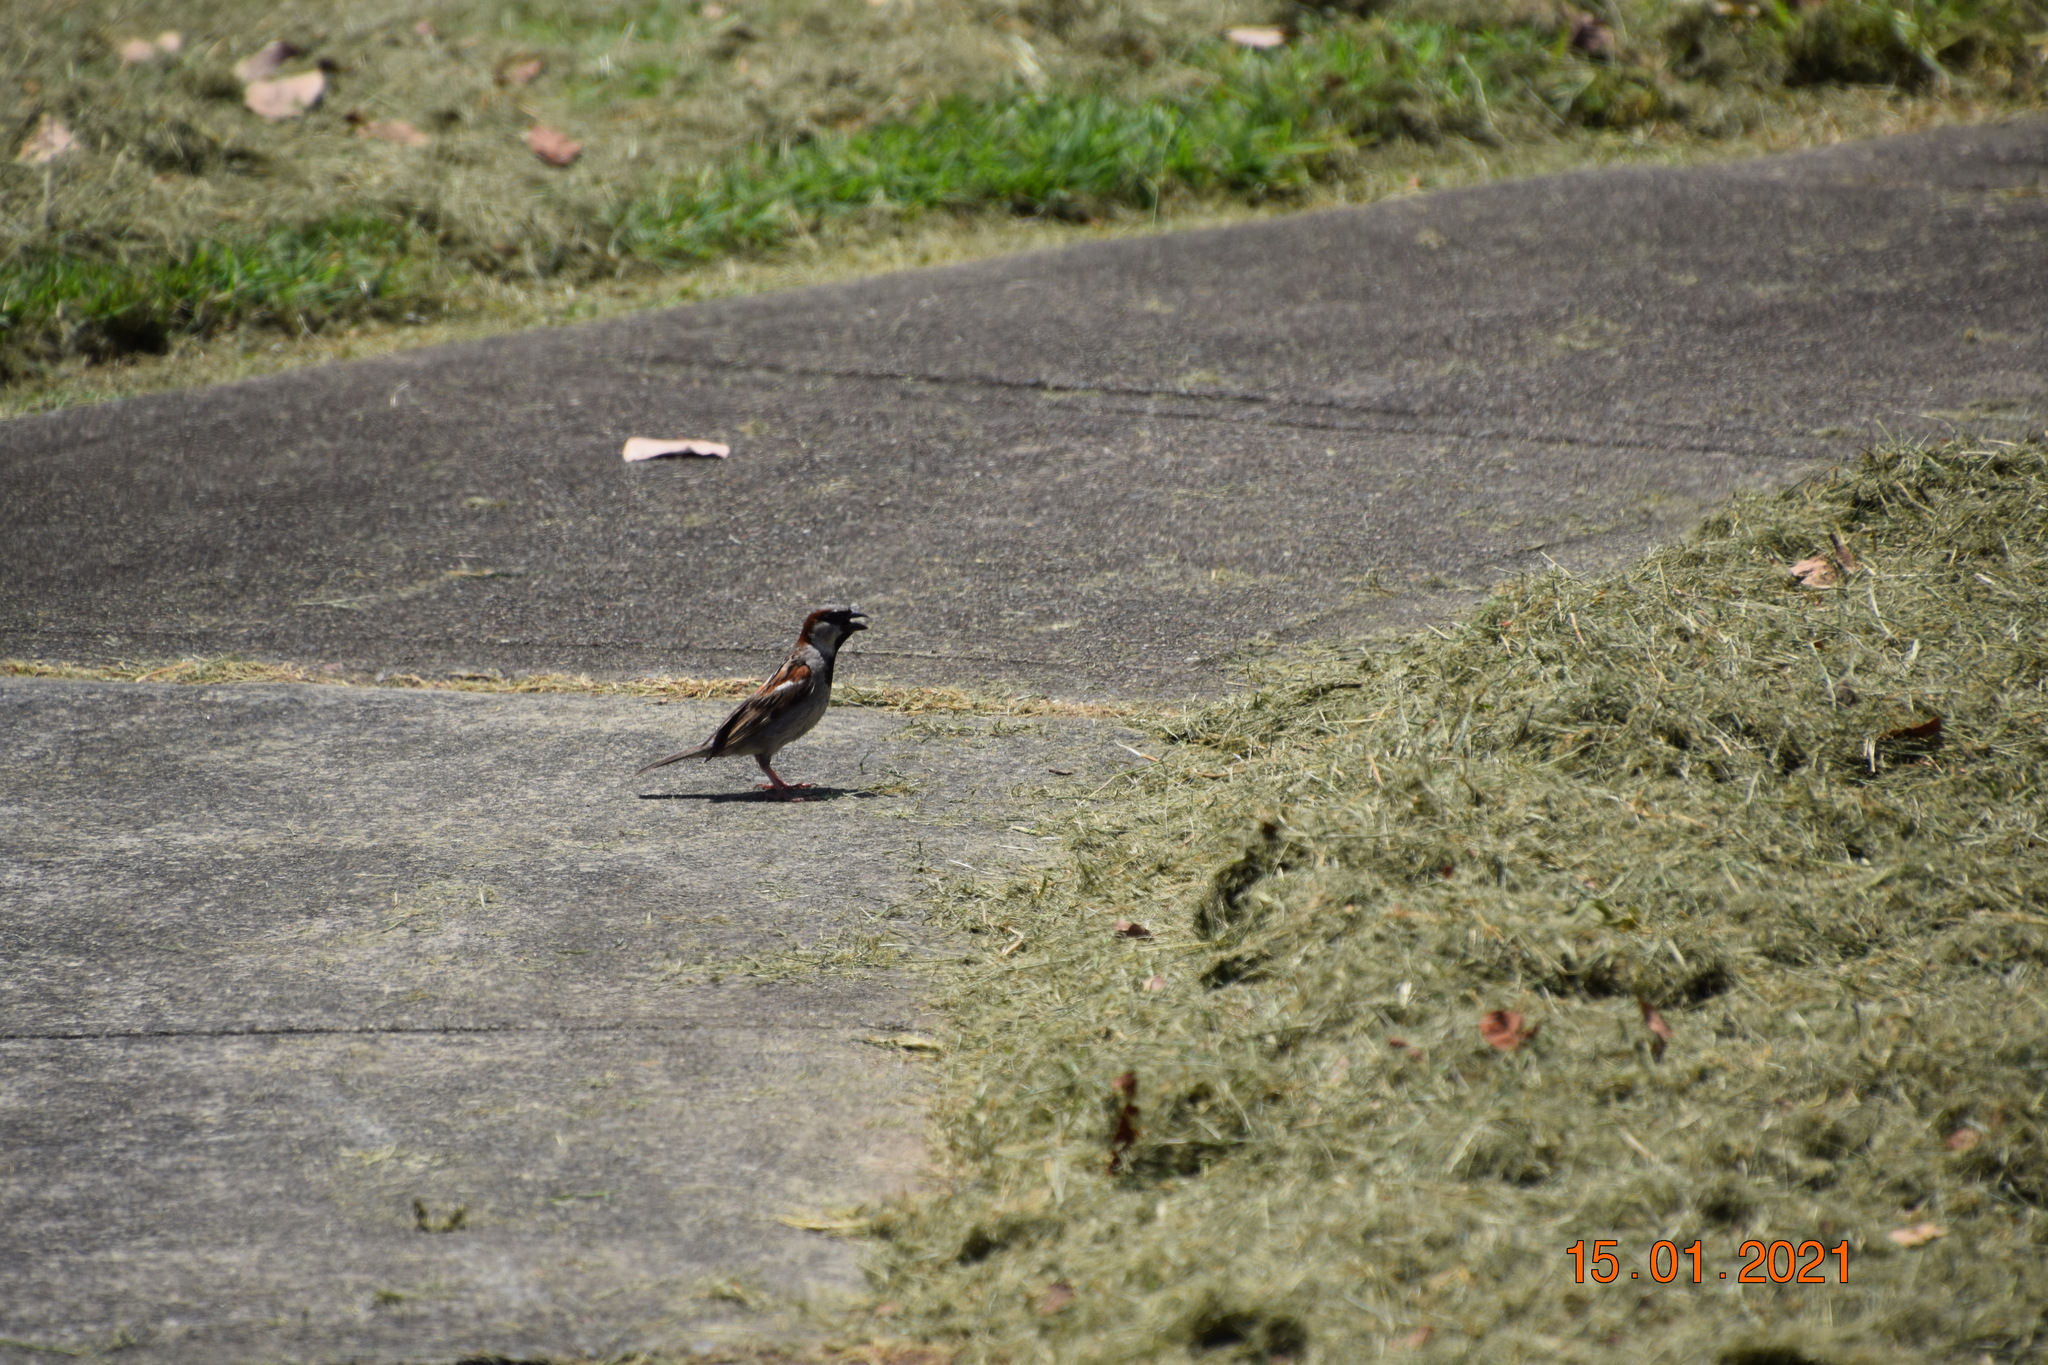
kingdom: Animalia
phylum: Chordata
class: Aves
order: Passeriformes
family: Passeridae
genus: Passer
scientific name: Passer domesticus
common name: House sparrow
